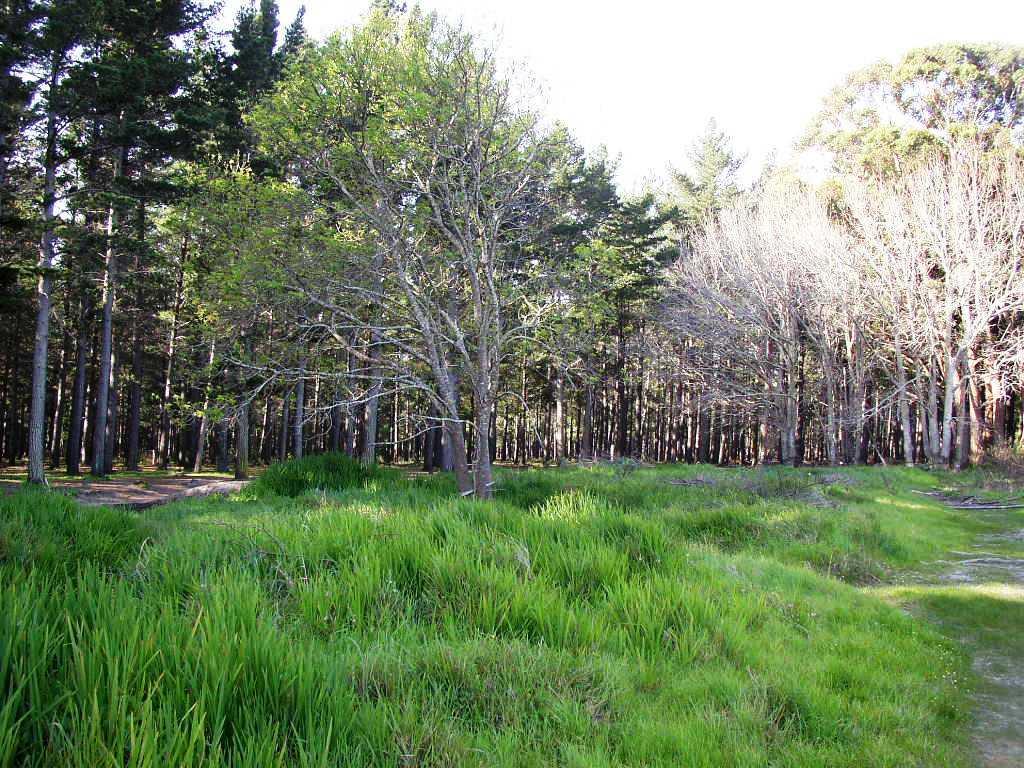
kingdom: Plantae
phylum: Tracheophyta
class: Magnoliopsida
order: Malpighiales
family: Salicaceae
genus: Populus
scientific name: Populus canescens
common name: Gray poplar
